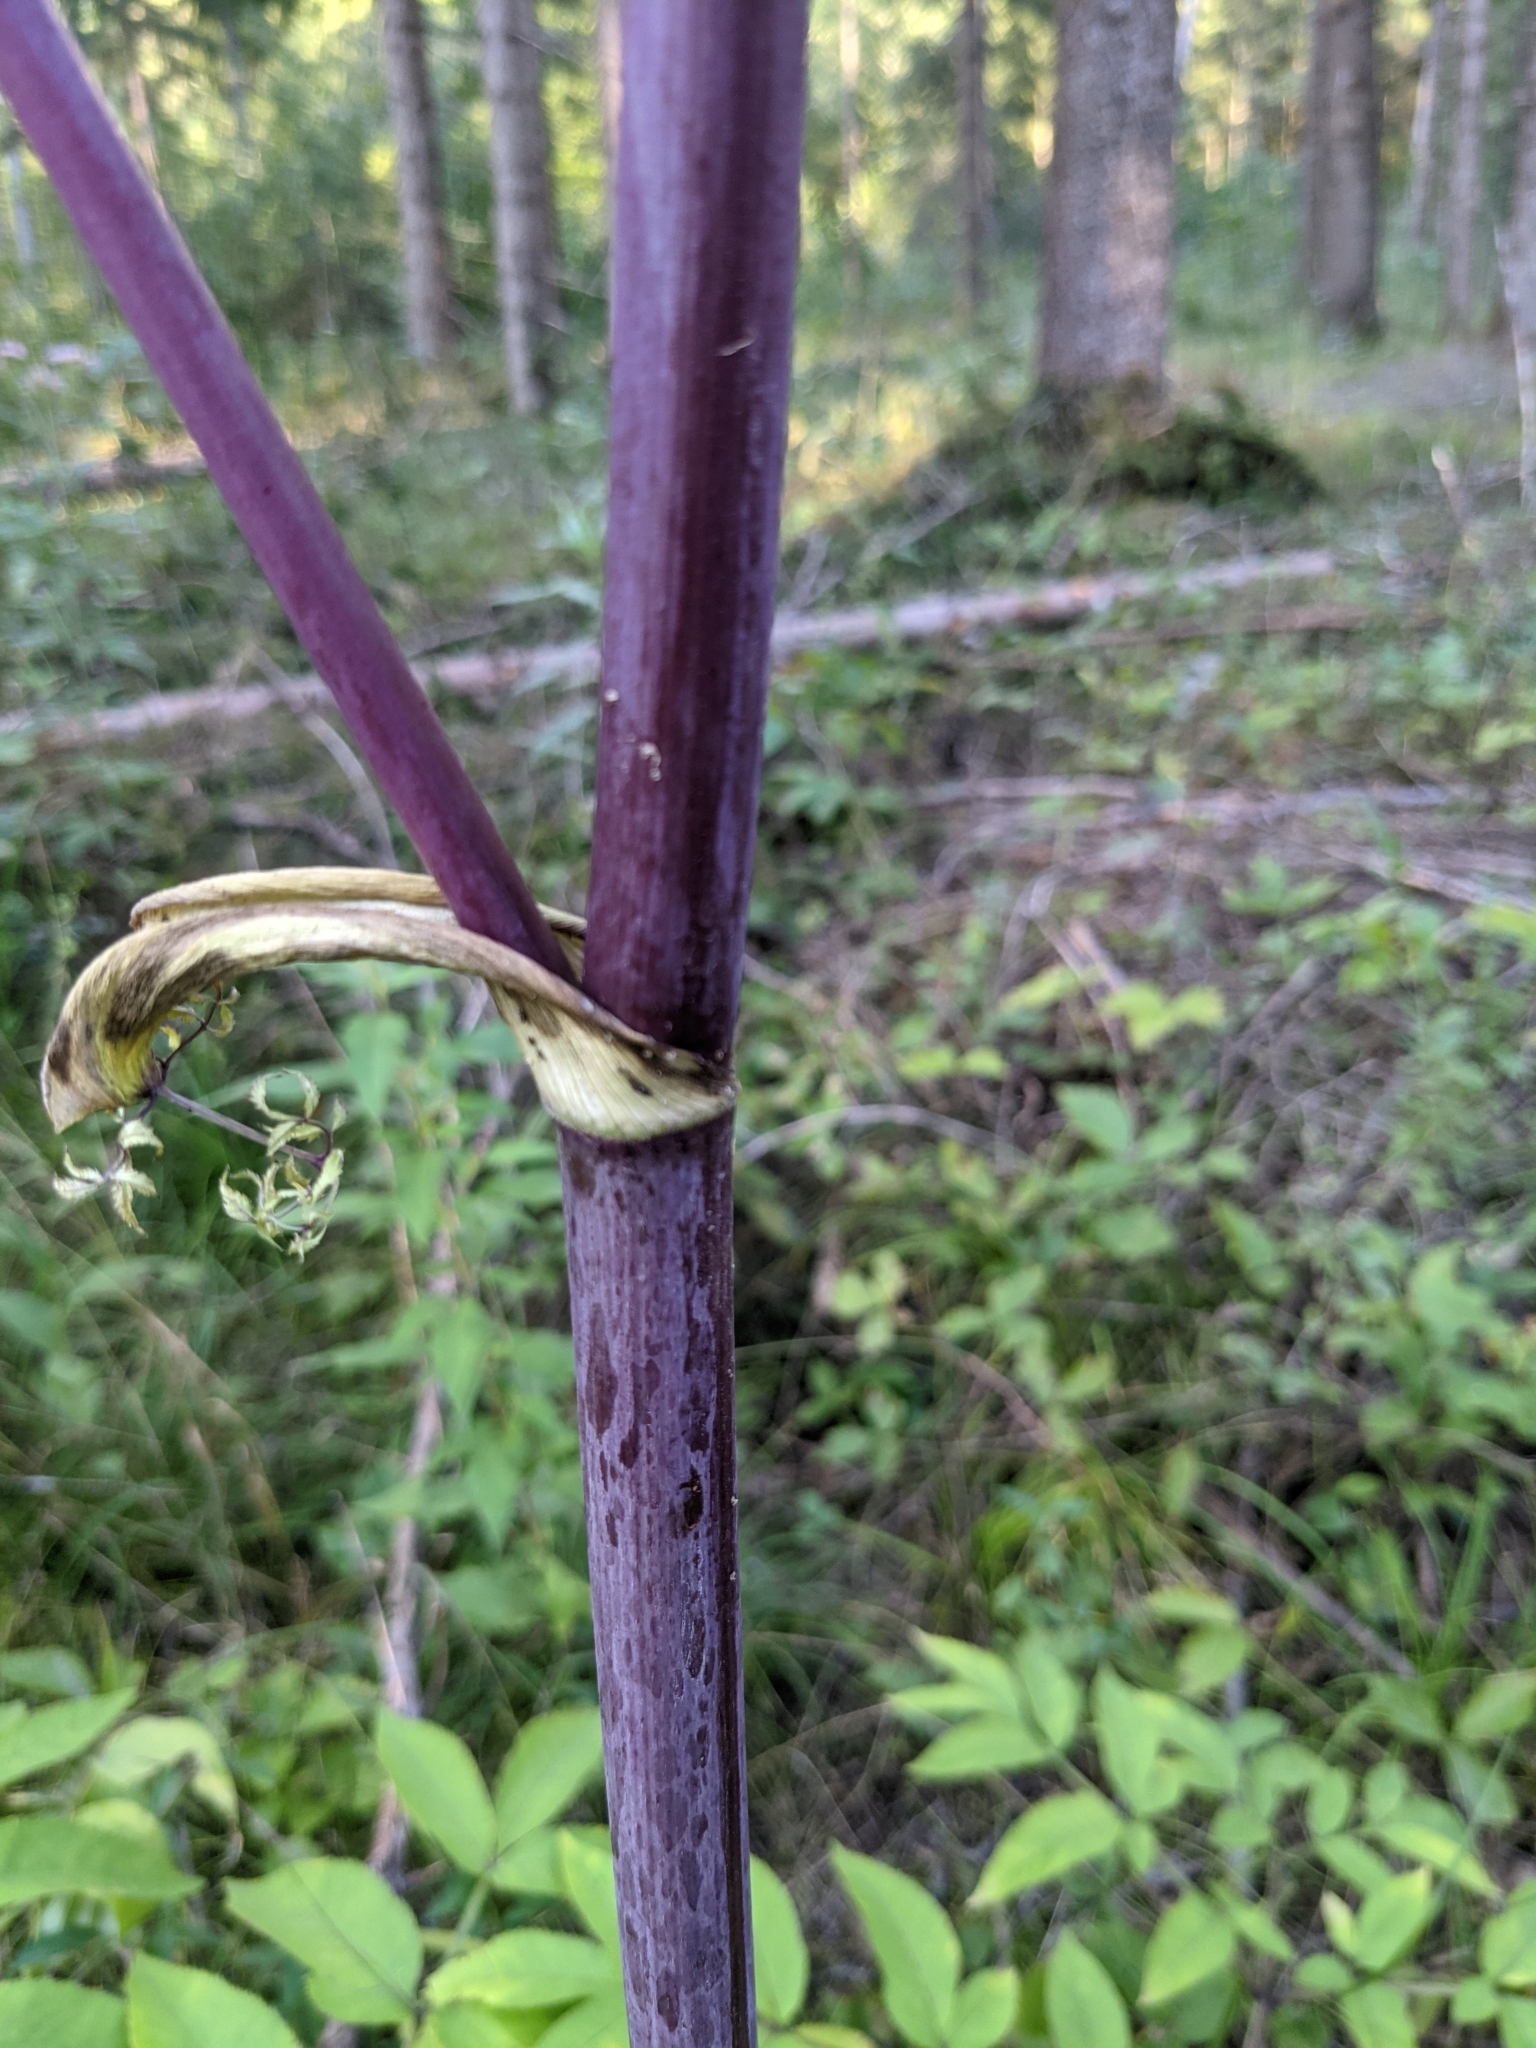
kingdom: Plantae
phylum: Tracheophyta
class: Magnoliopsida
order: Apiales
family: Apiaceae
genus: Angelica
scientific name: Angelica sylvestris
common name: Wild angelica
